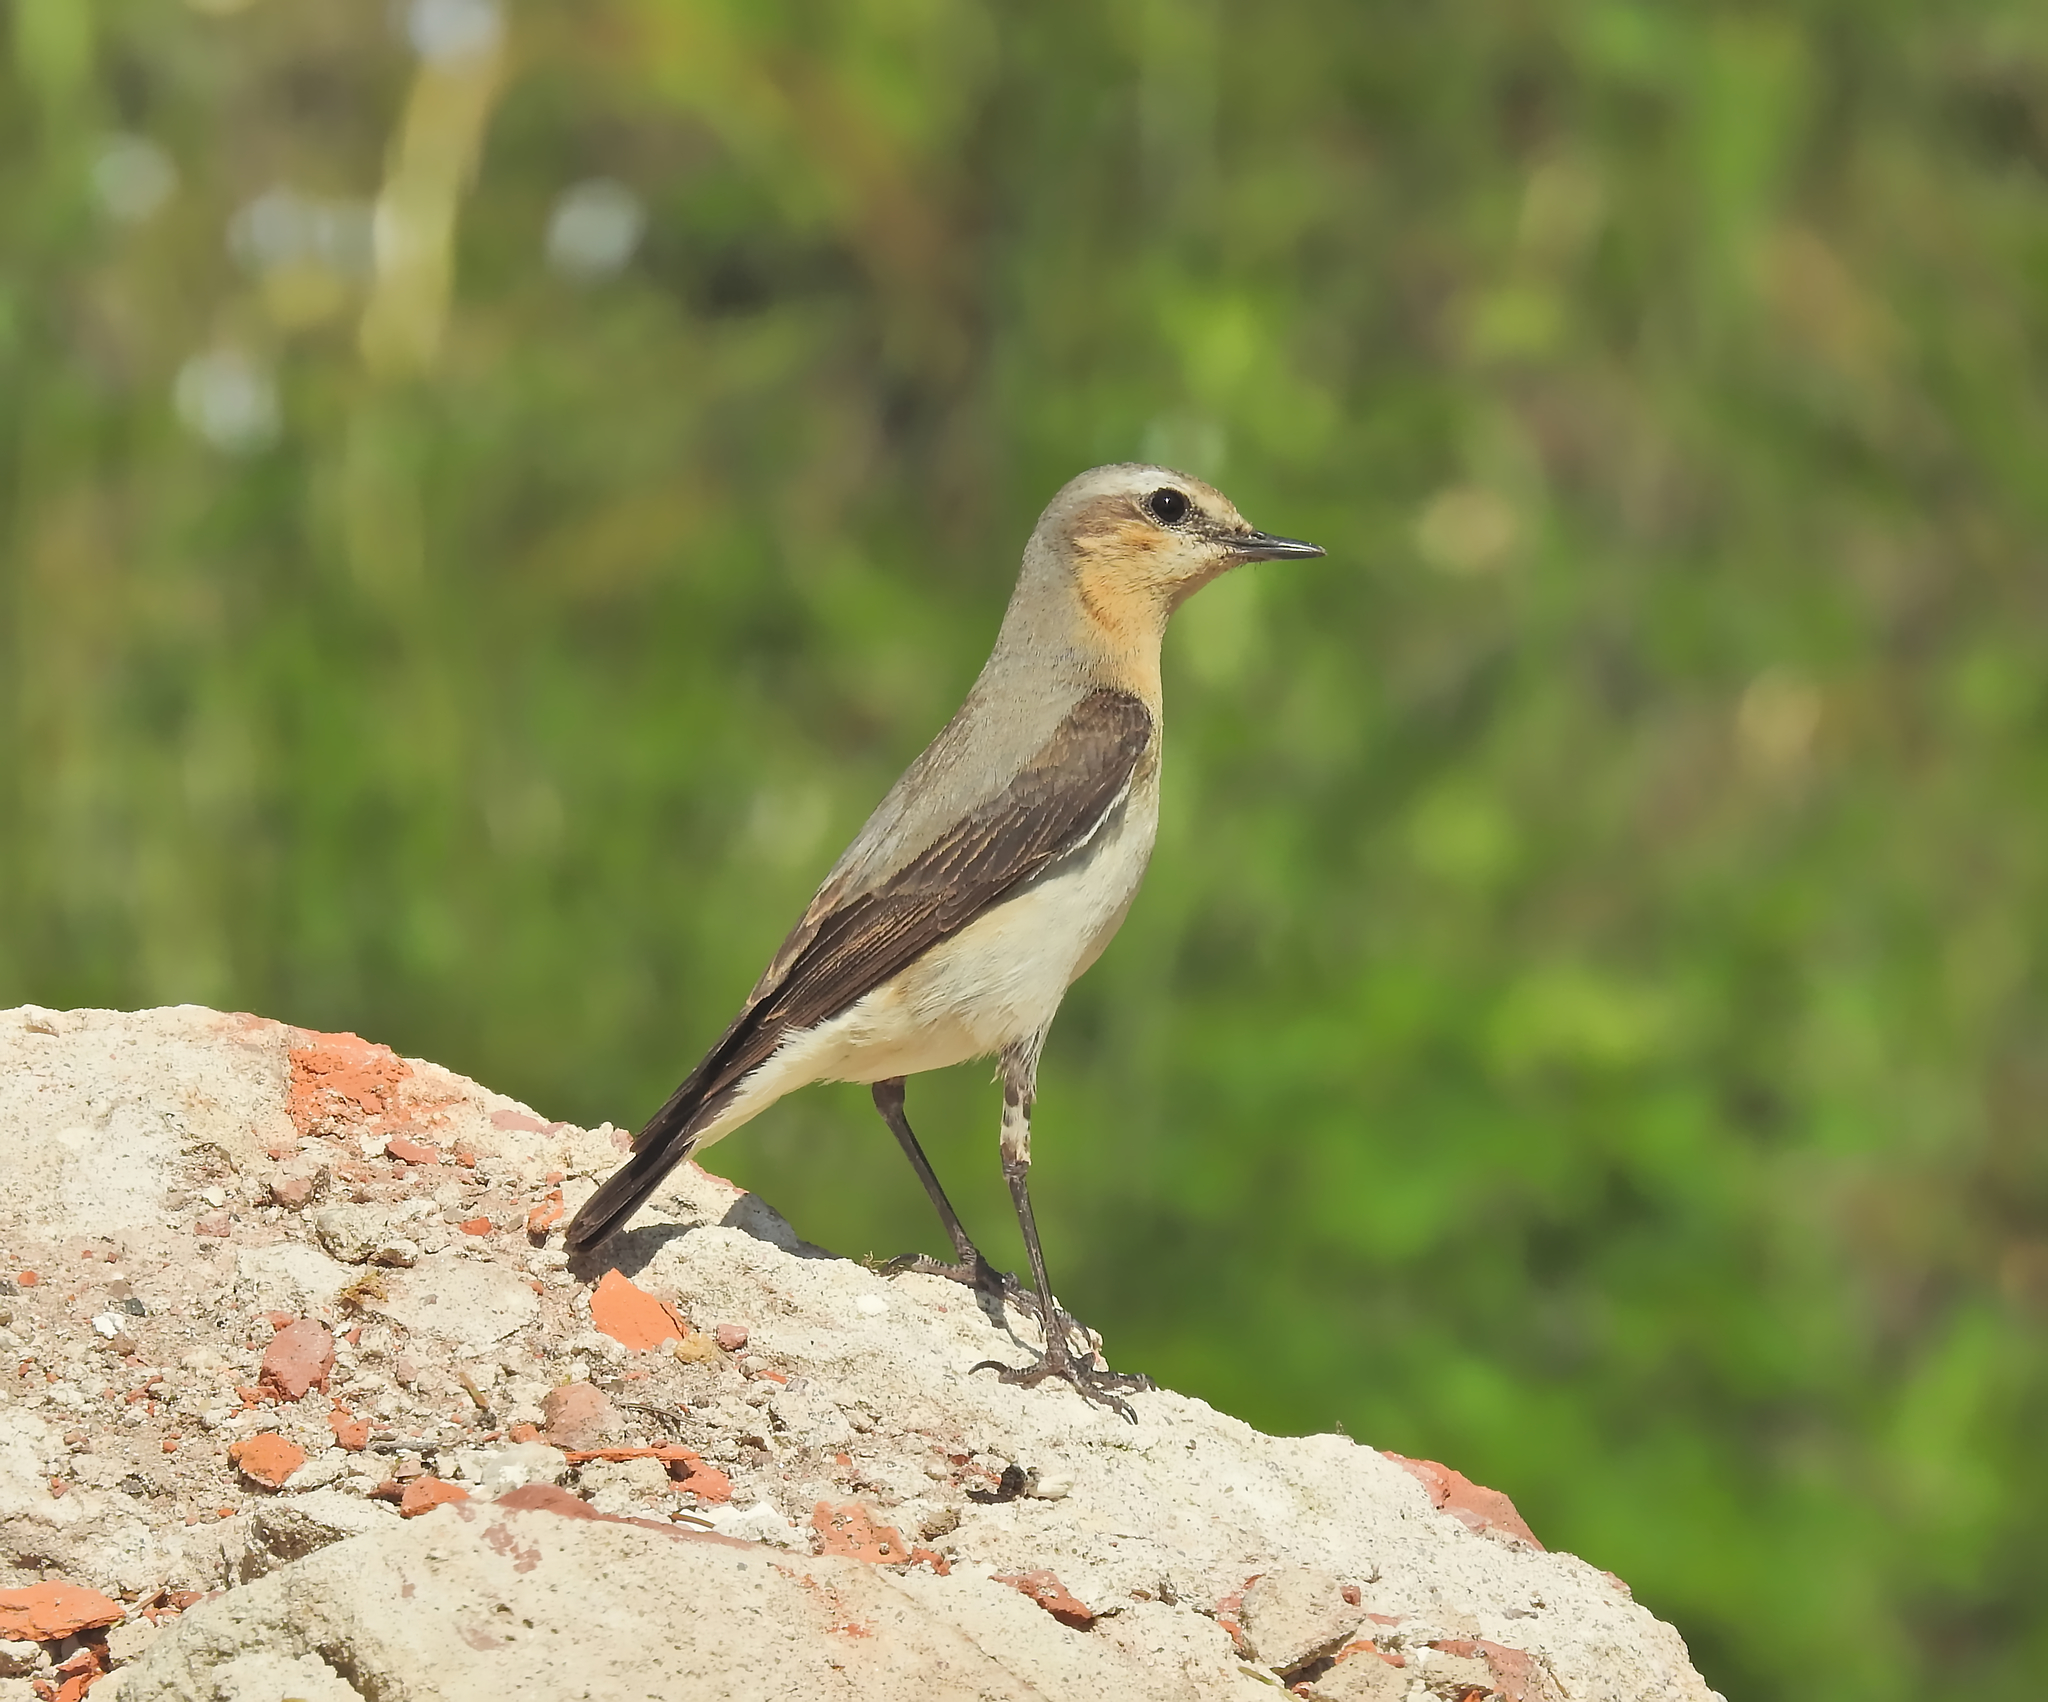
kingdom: Animalia
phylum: Chordata
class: Aves
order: Passeriformes
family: Muscicapidae
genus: Oenanthe
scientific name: Oenanthe oenanthe
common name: Northern wheatear
